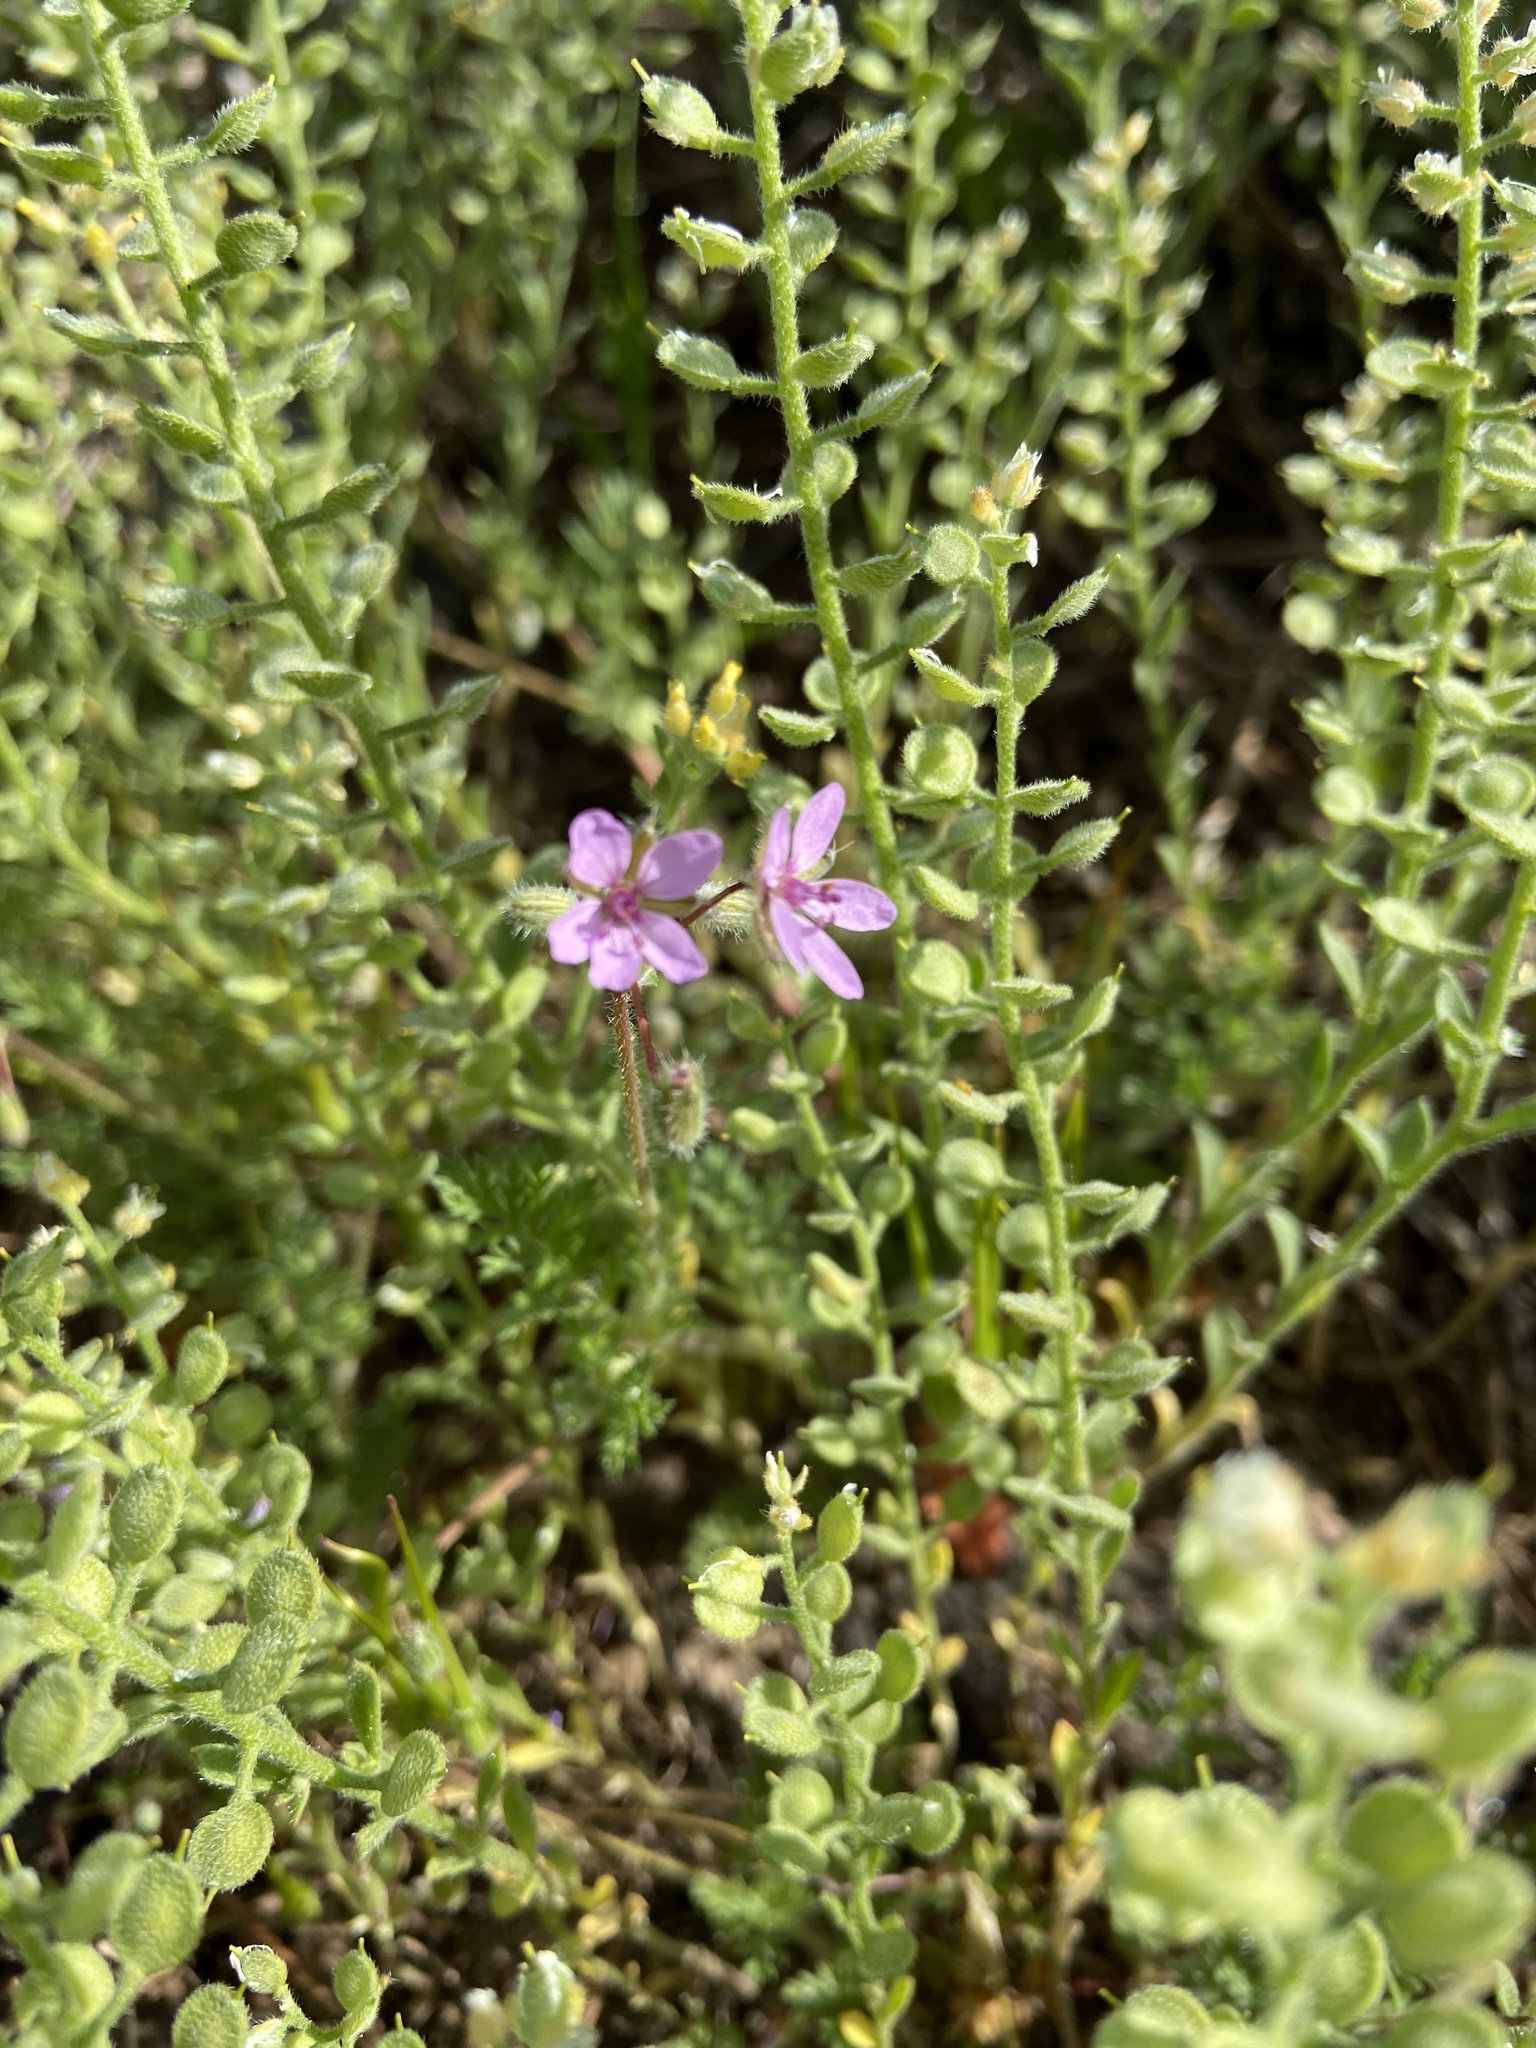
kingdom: Plantae
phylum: Tracheophyta
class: Magnoliopsida
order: Geraniales
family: Geraniaceae
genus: Erodium
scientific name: Erodium cicutarium
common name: Common stork's-bill
